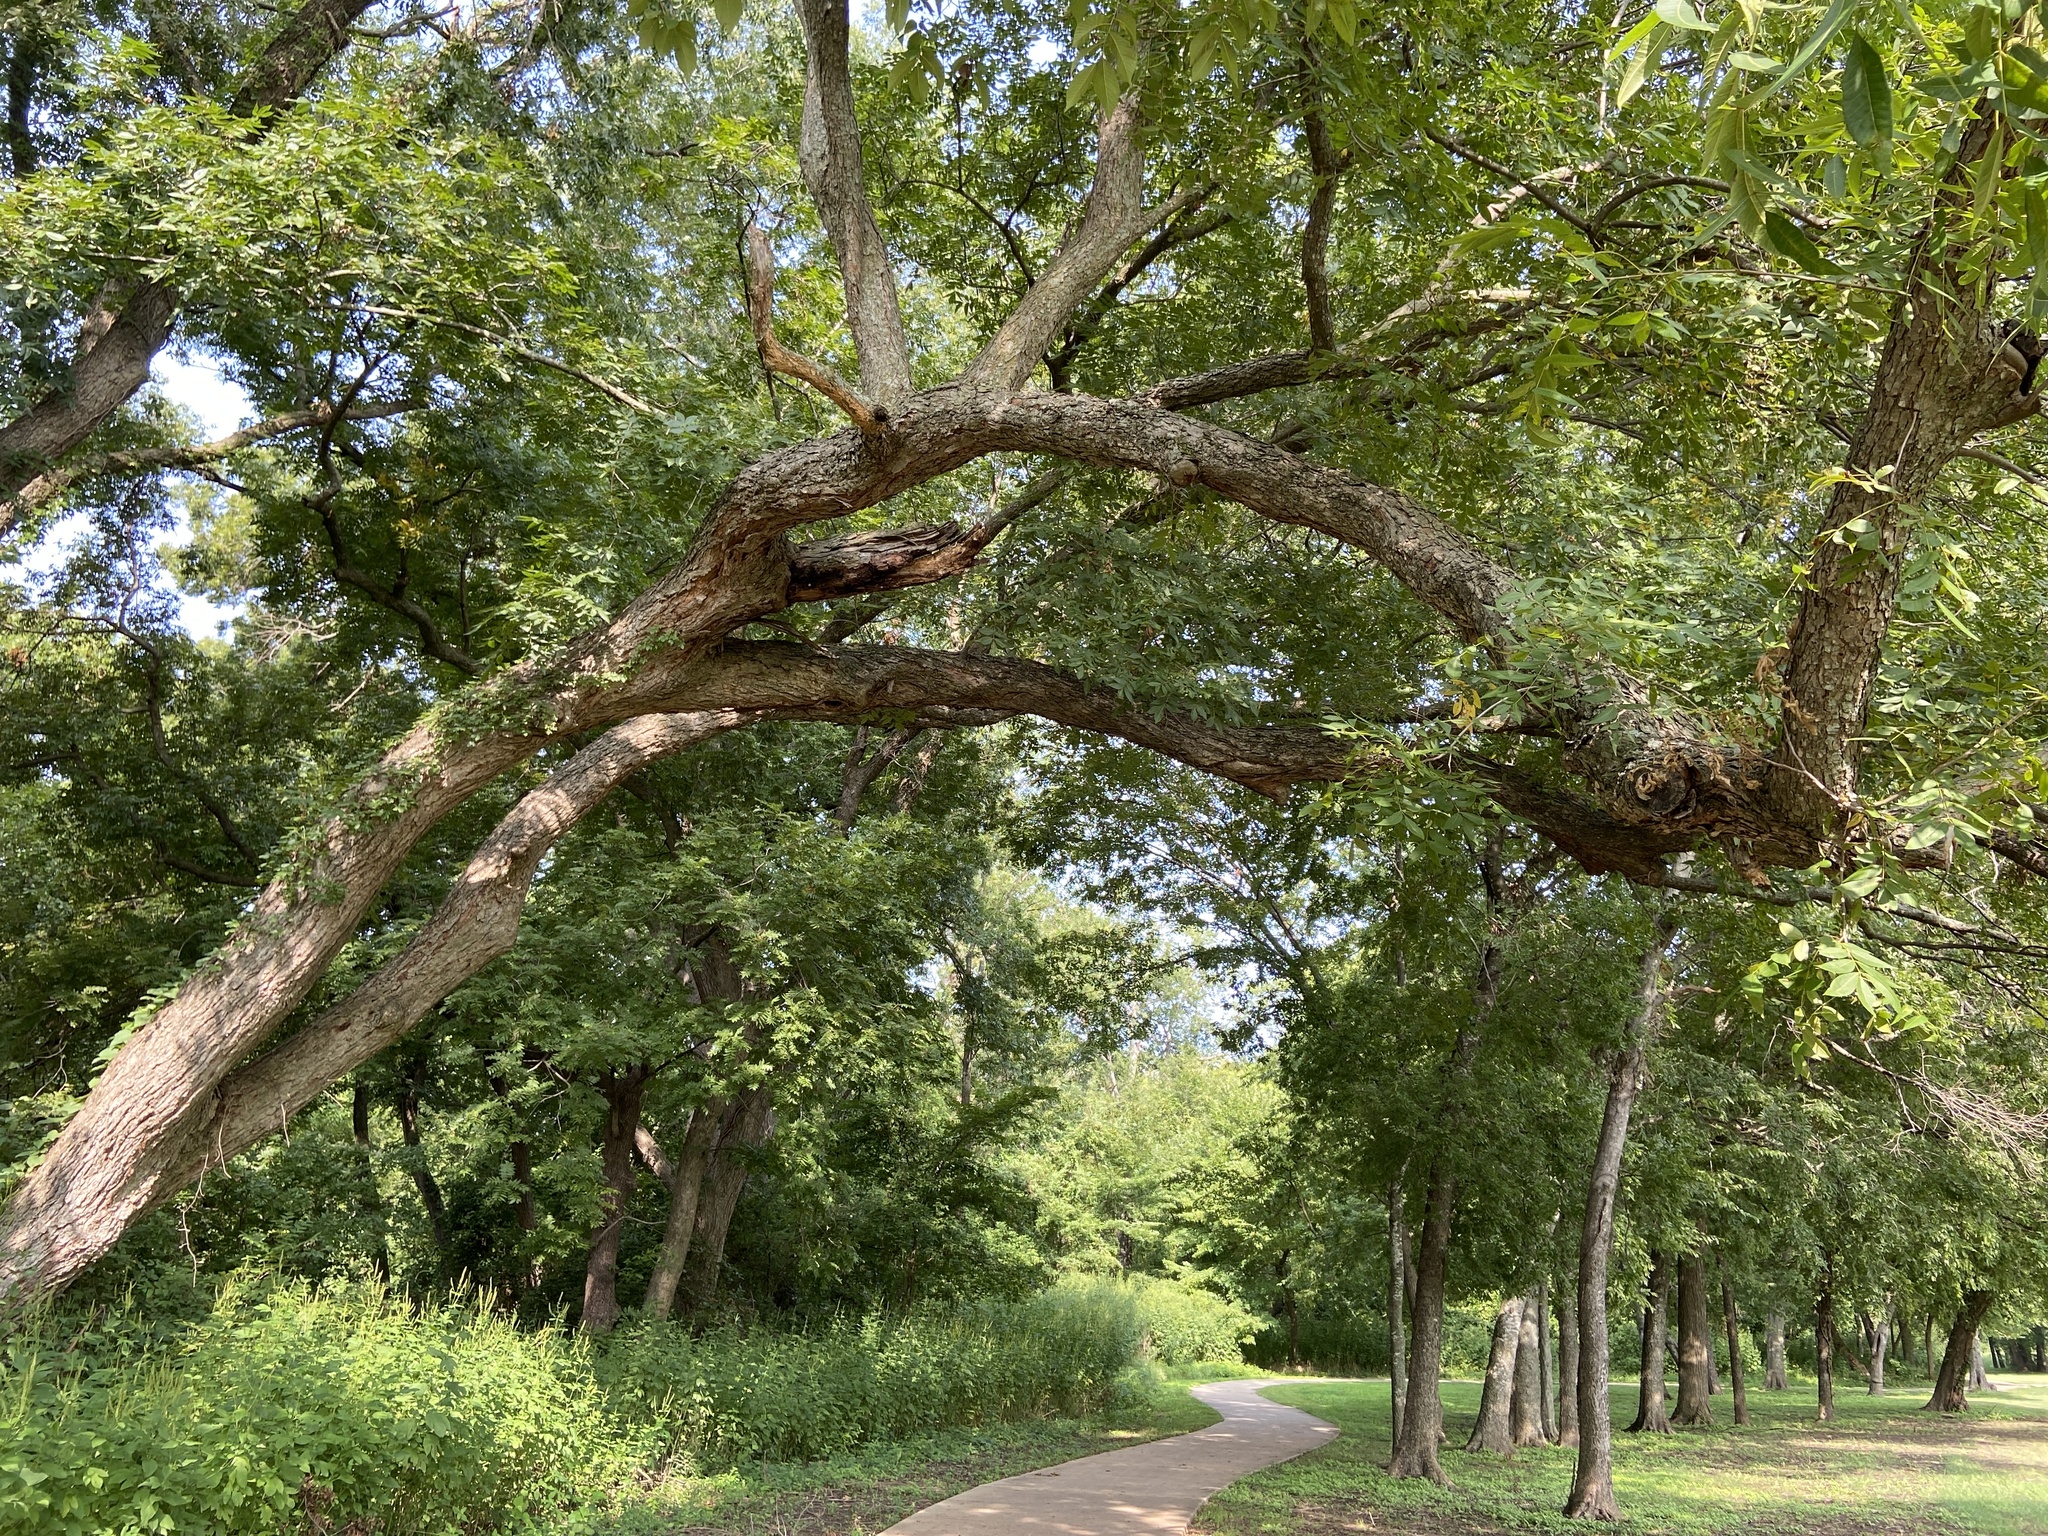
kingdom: Plantae
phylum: Tracheophyta
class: Magnoliopsida
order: Fagales
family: Juglandaceae
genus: Carya
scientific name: Carya illinoinensis
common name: Pecan
